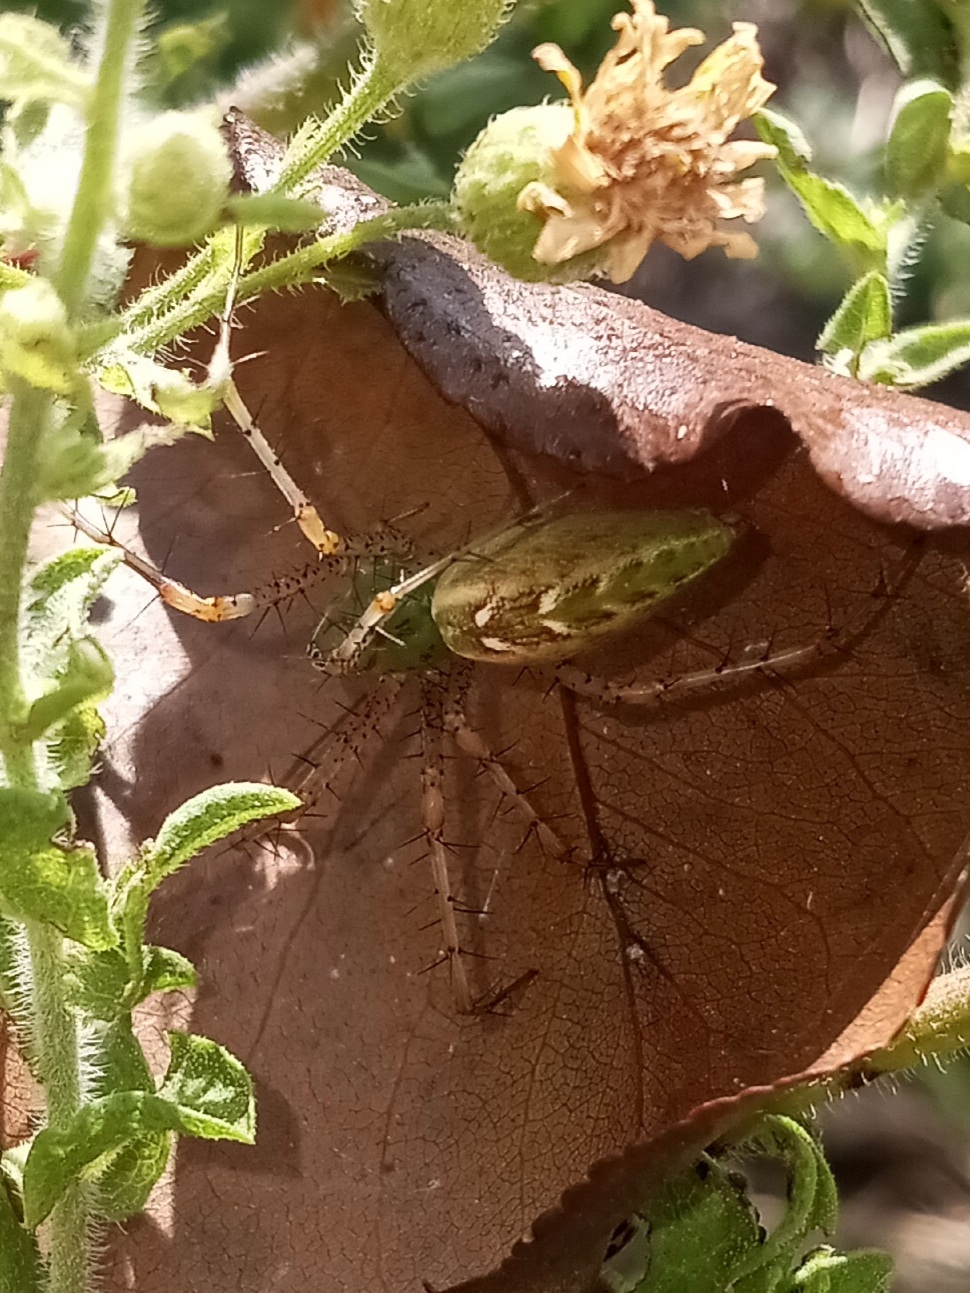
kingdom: Animalia
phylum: Arthropoda
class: Arachnida
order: Araneae
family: Oxyopidae
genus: Peucetia
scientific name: Peucetia viridans
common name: Lynx spiders
